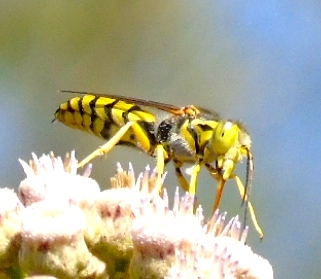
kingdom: Animalia
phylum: Arthropoda
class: Insecta
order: Hymenoptera
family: Crabronidae
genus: Steniolia
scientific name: Steniolia
